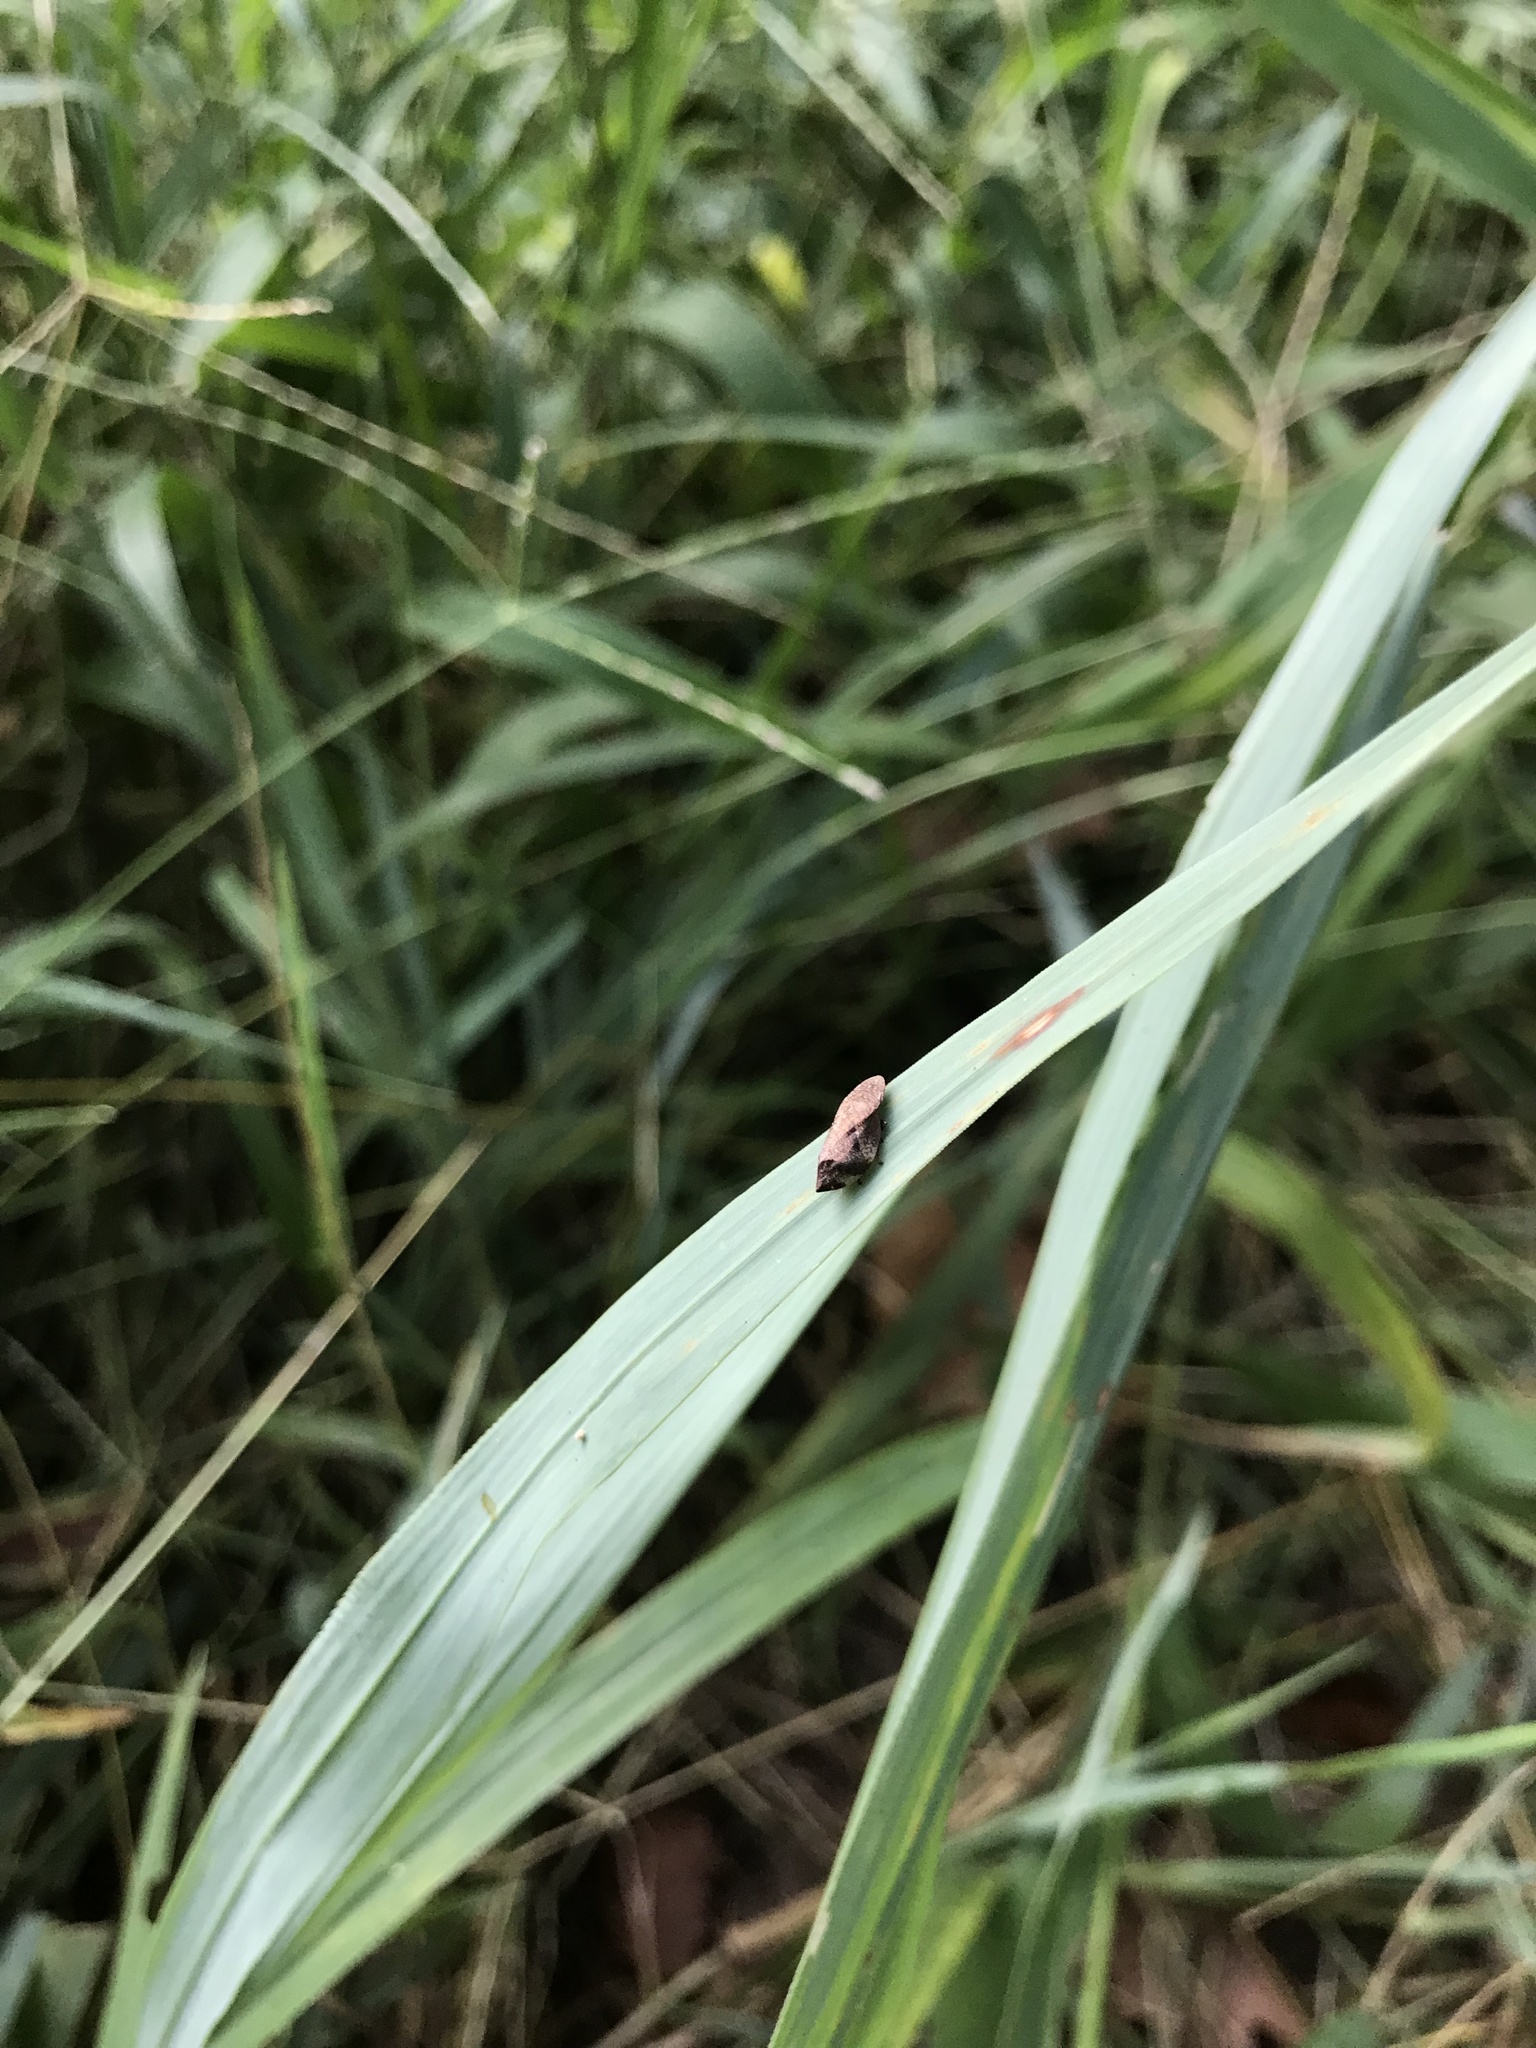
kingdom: Animalia
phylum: Arthropoda
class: Insecta
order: Hemiptera
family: Aphrophoridae
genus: Lepyronia
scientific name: Lepyronia quadrangularis
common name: Diamond-backed spittlebug
